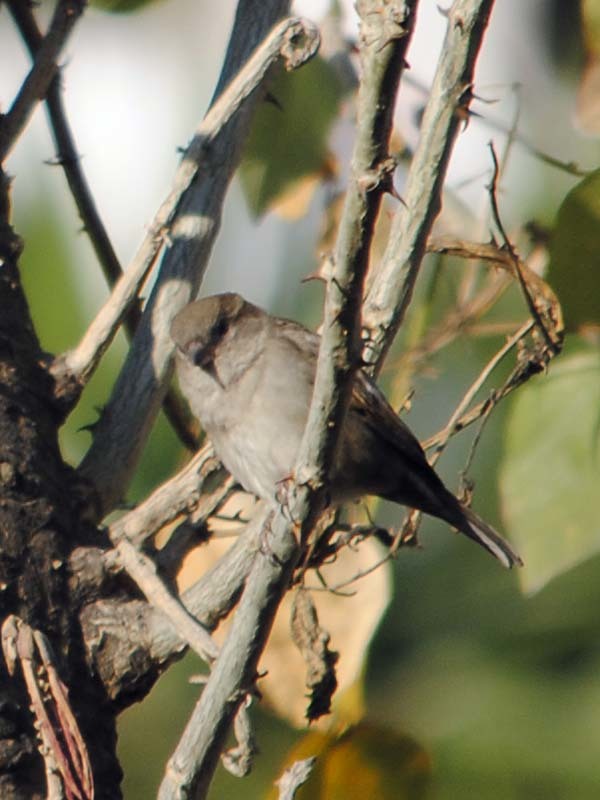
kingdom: Animalia
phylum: Chordata
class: Aves
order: Passeriformes
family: Passeridae
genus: Passer
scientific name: Passer domesticus
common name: House sparrow
